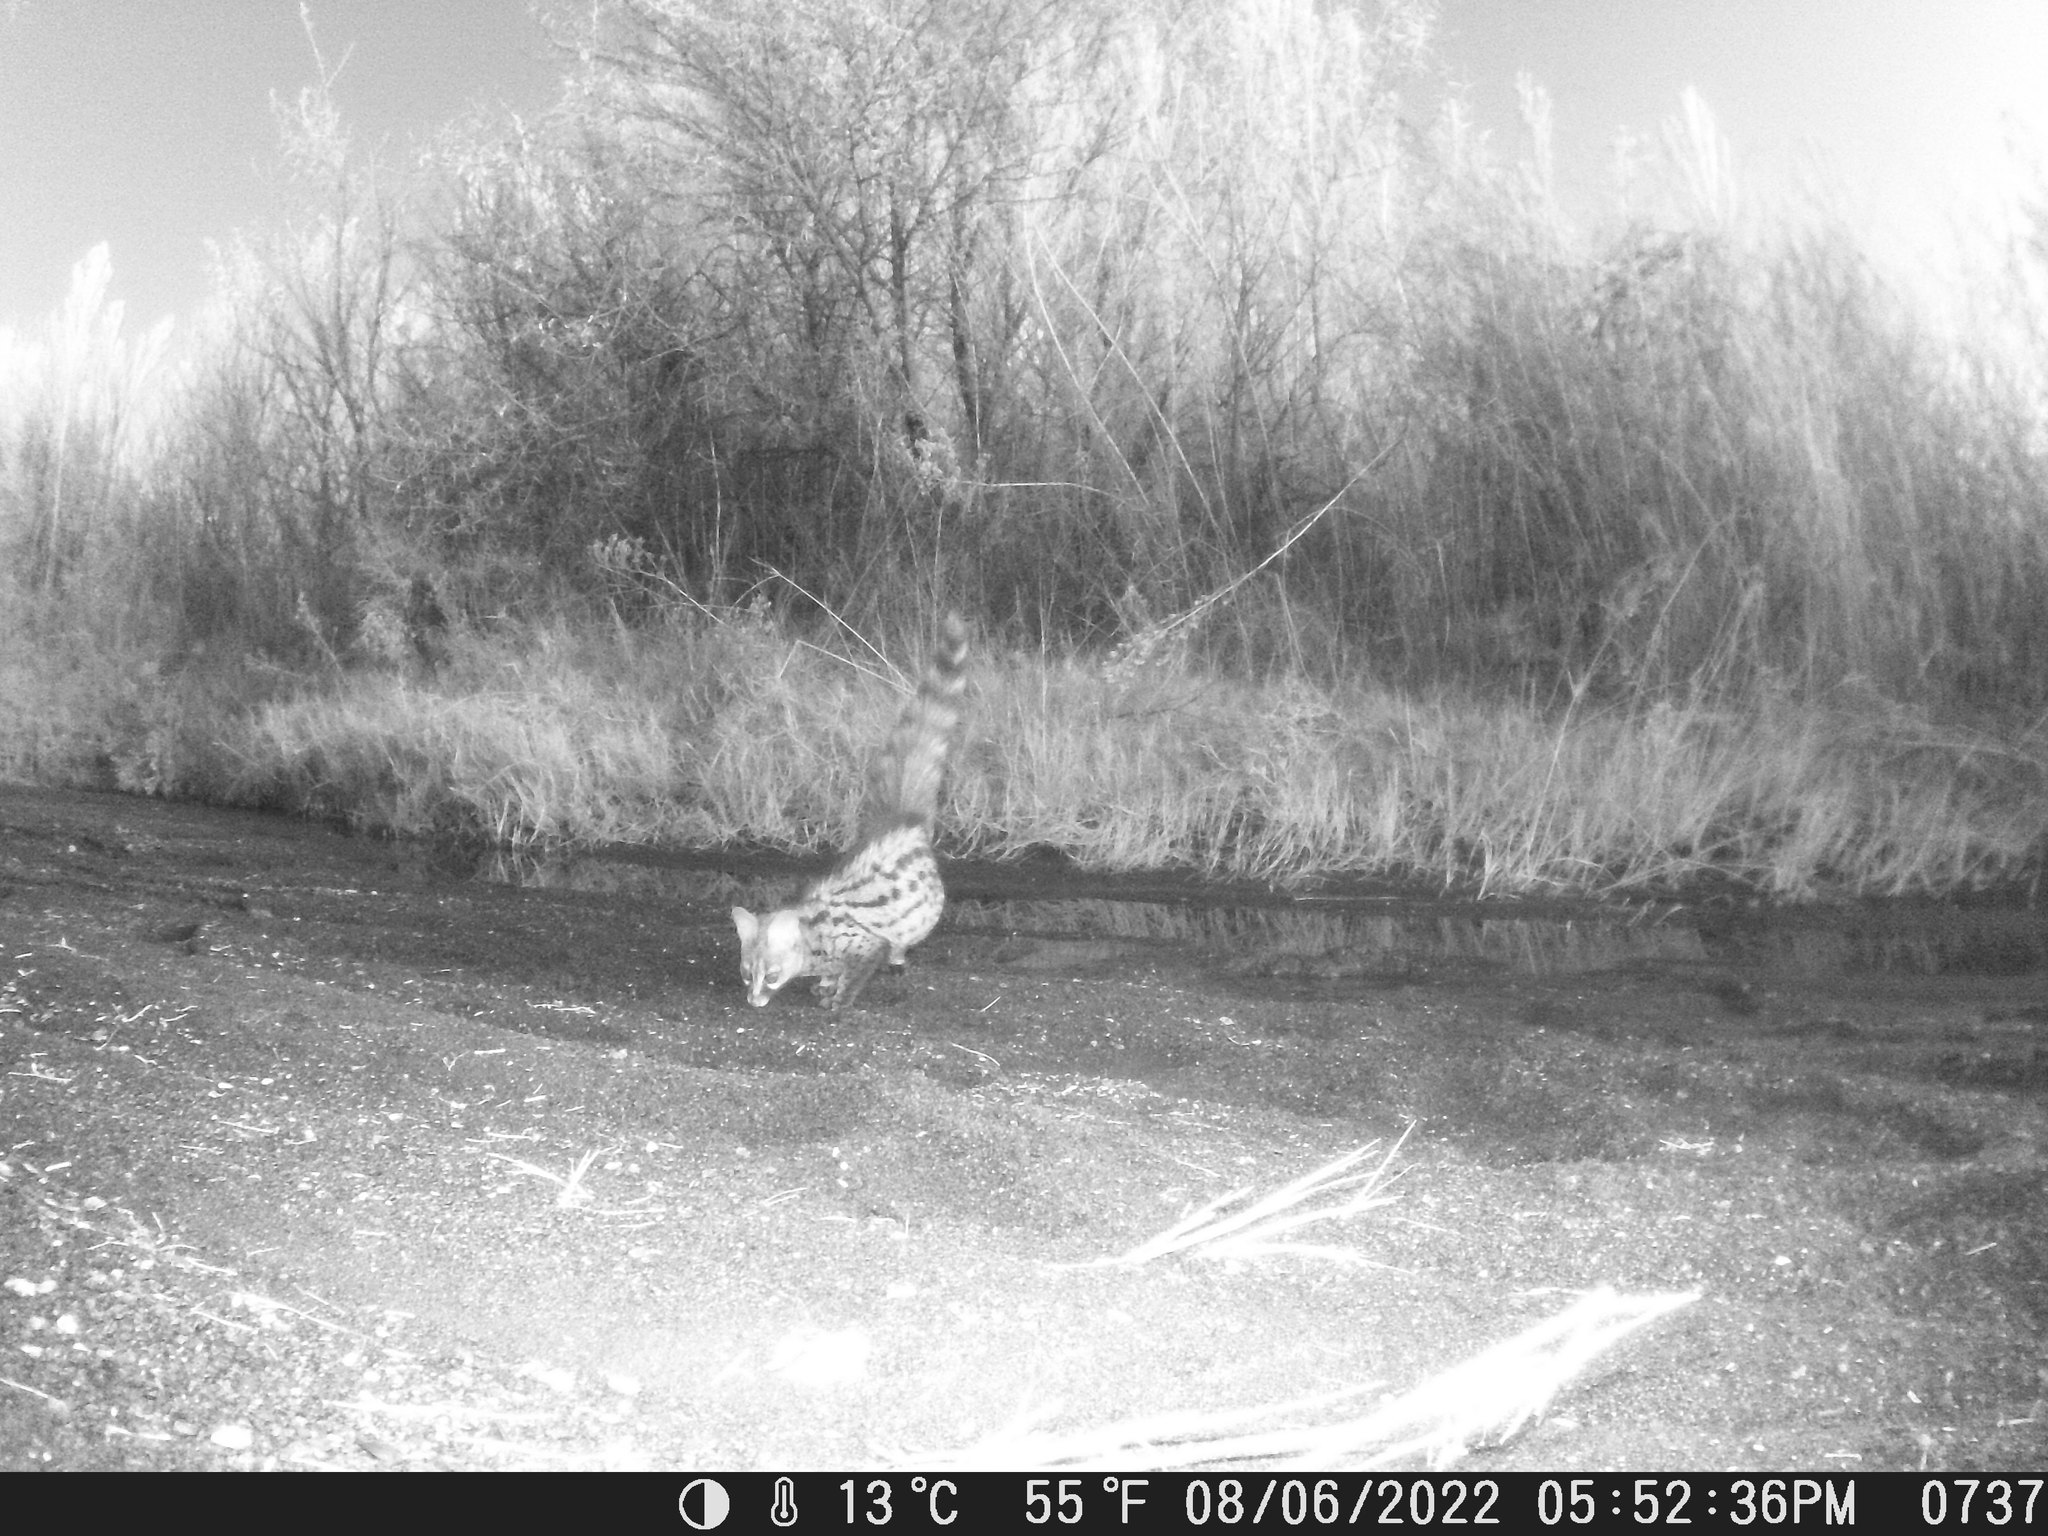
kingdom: Animalia
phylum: Chordata
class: Mammalia
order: Carnivora
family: Viverridae
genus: Genetta
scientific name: Genetta genetta
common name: Common genet
